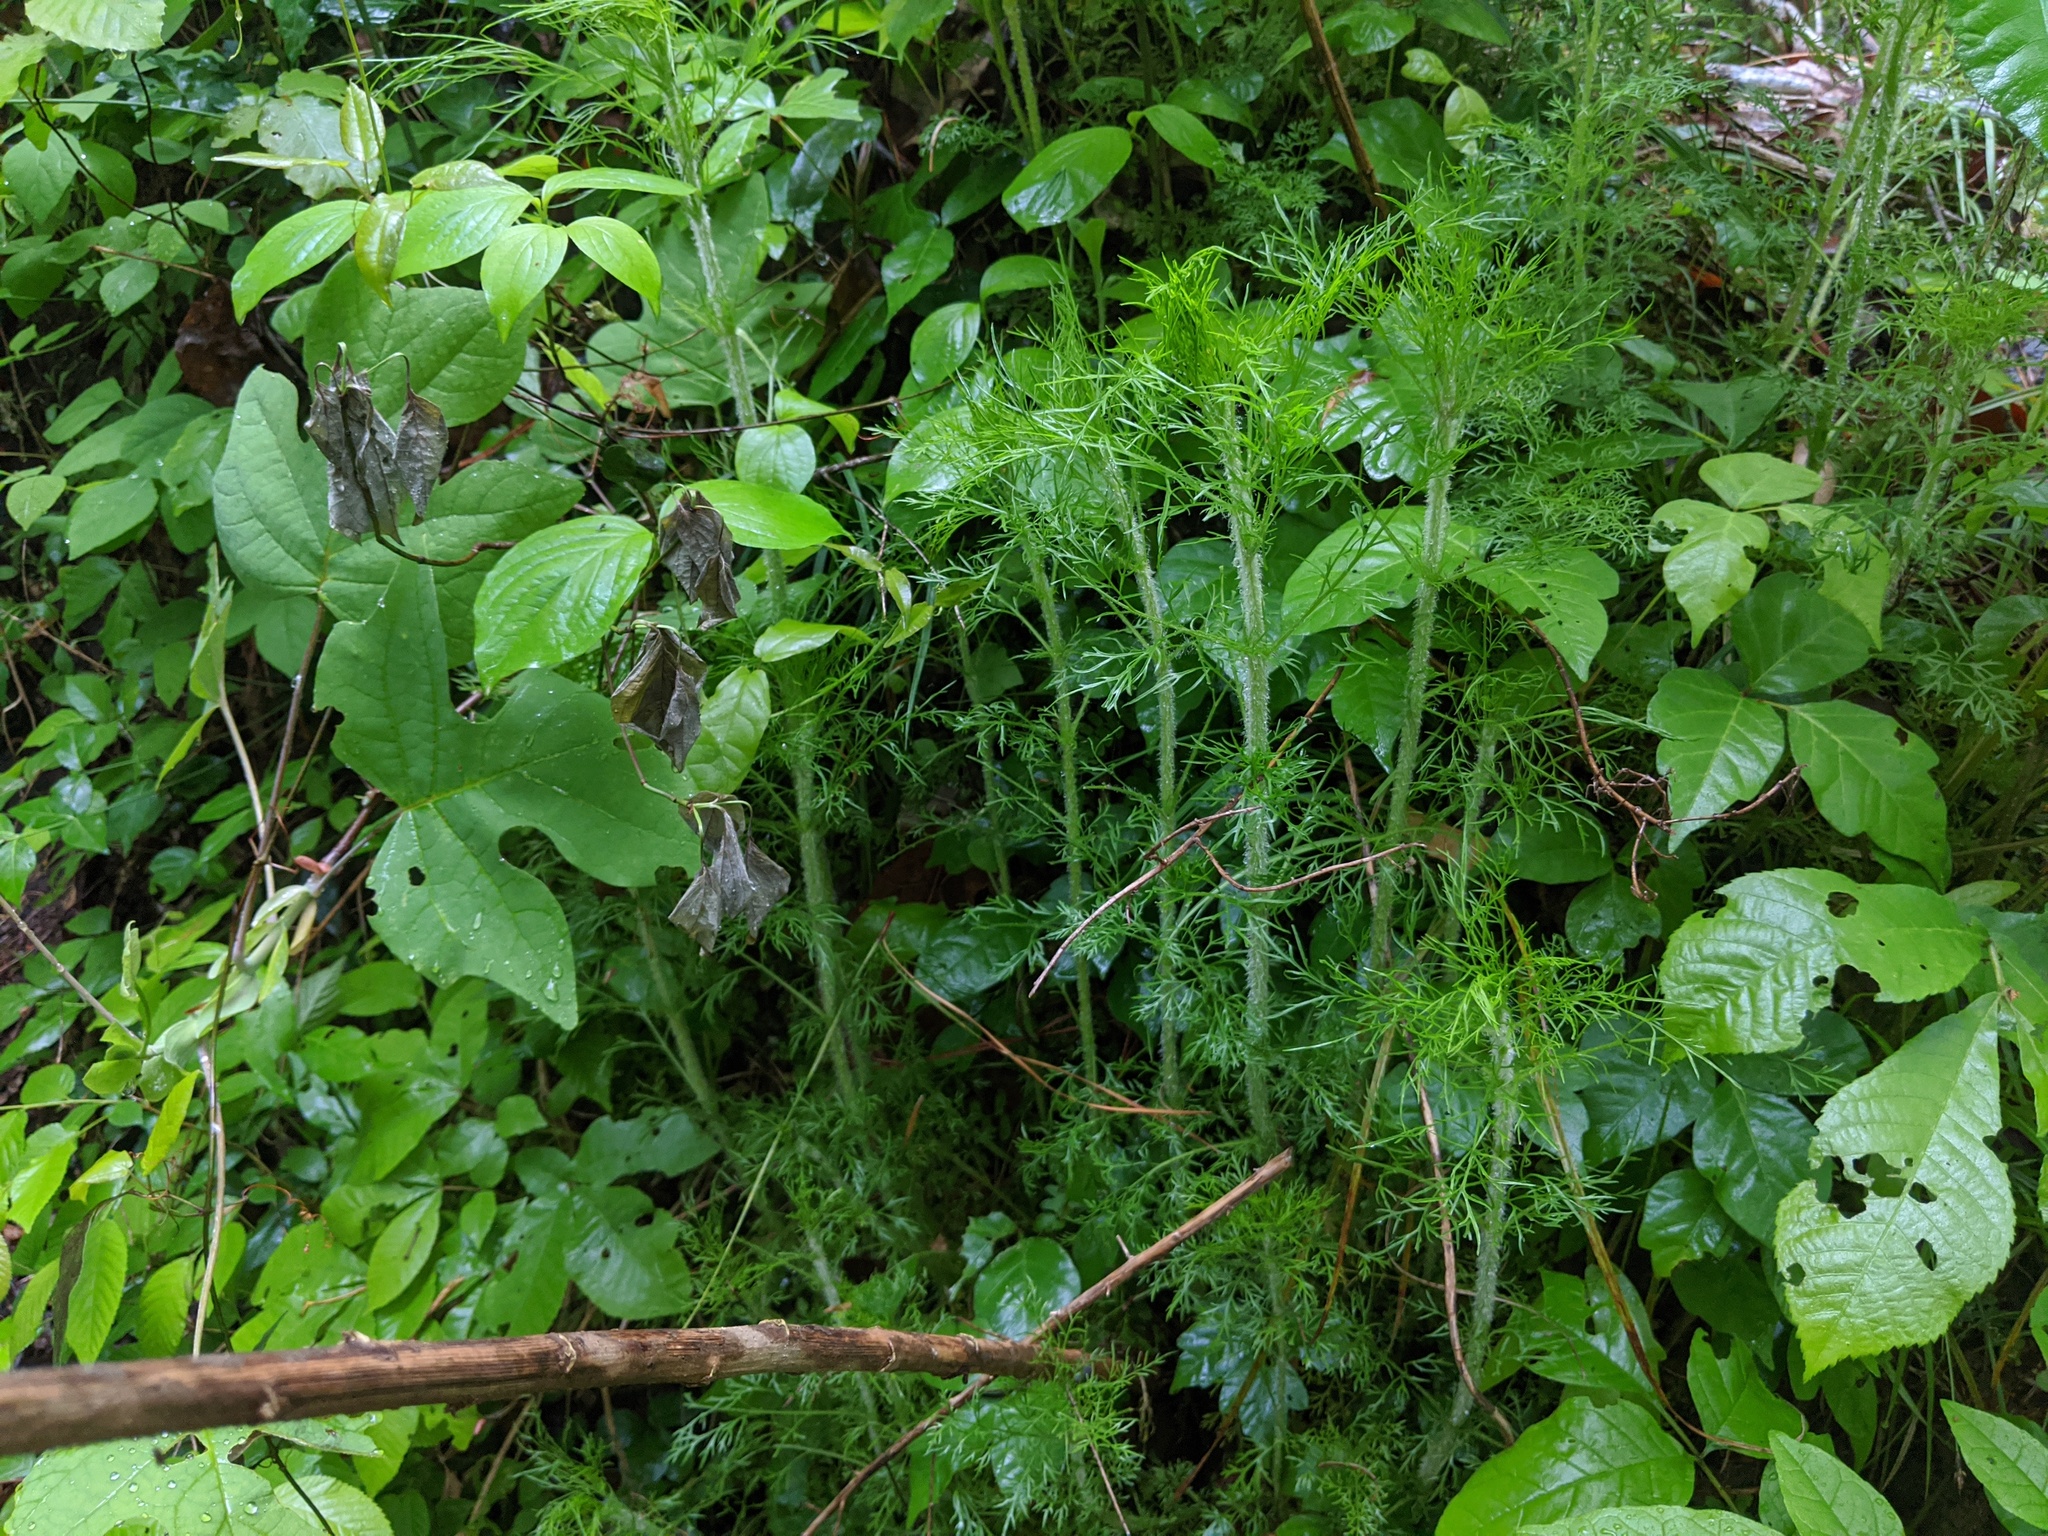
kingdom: Plantae
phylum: Tracheophyta
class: Magnoliopsida
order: Asterales
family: Asteraceae
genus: Eupatorium
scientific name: Eupatorium capillifolium
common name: Dog-fennel
